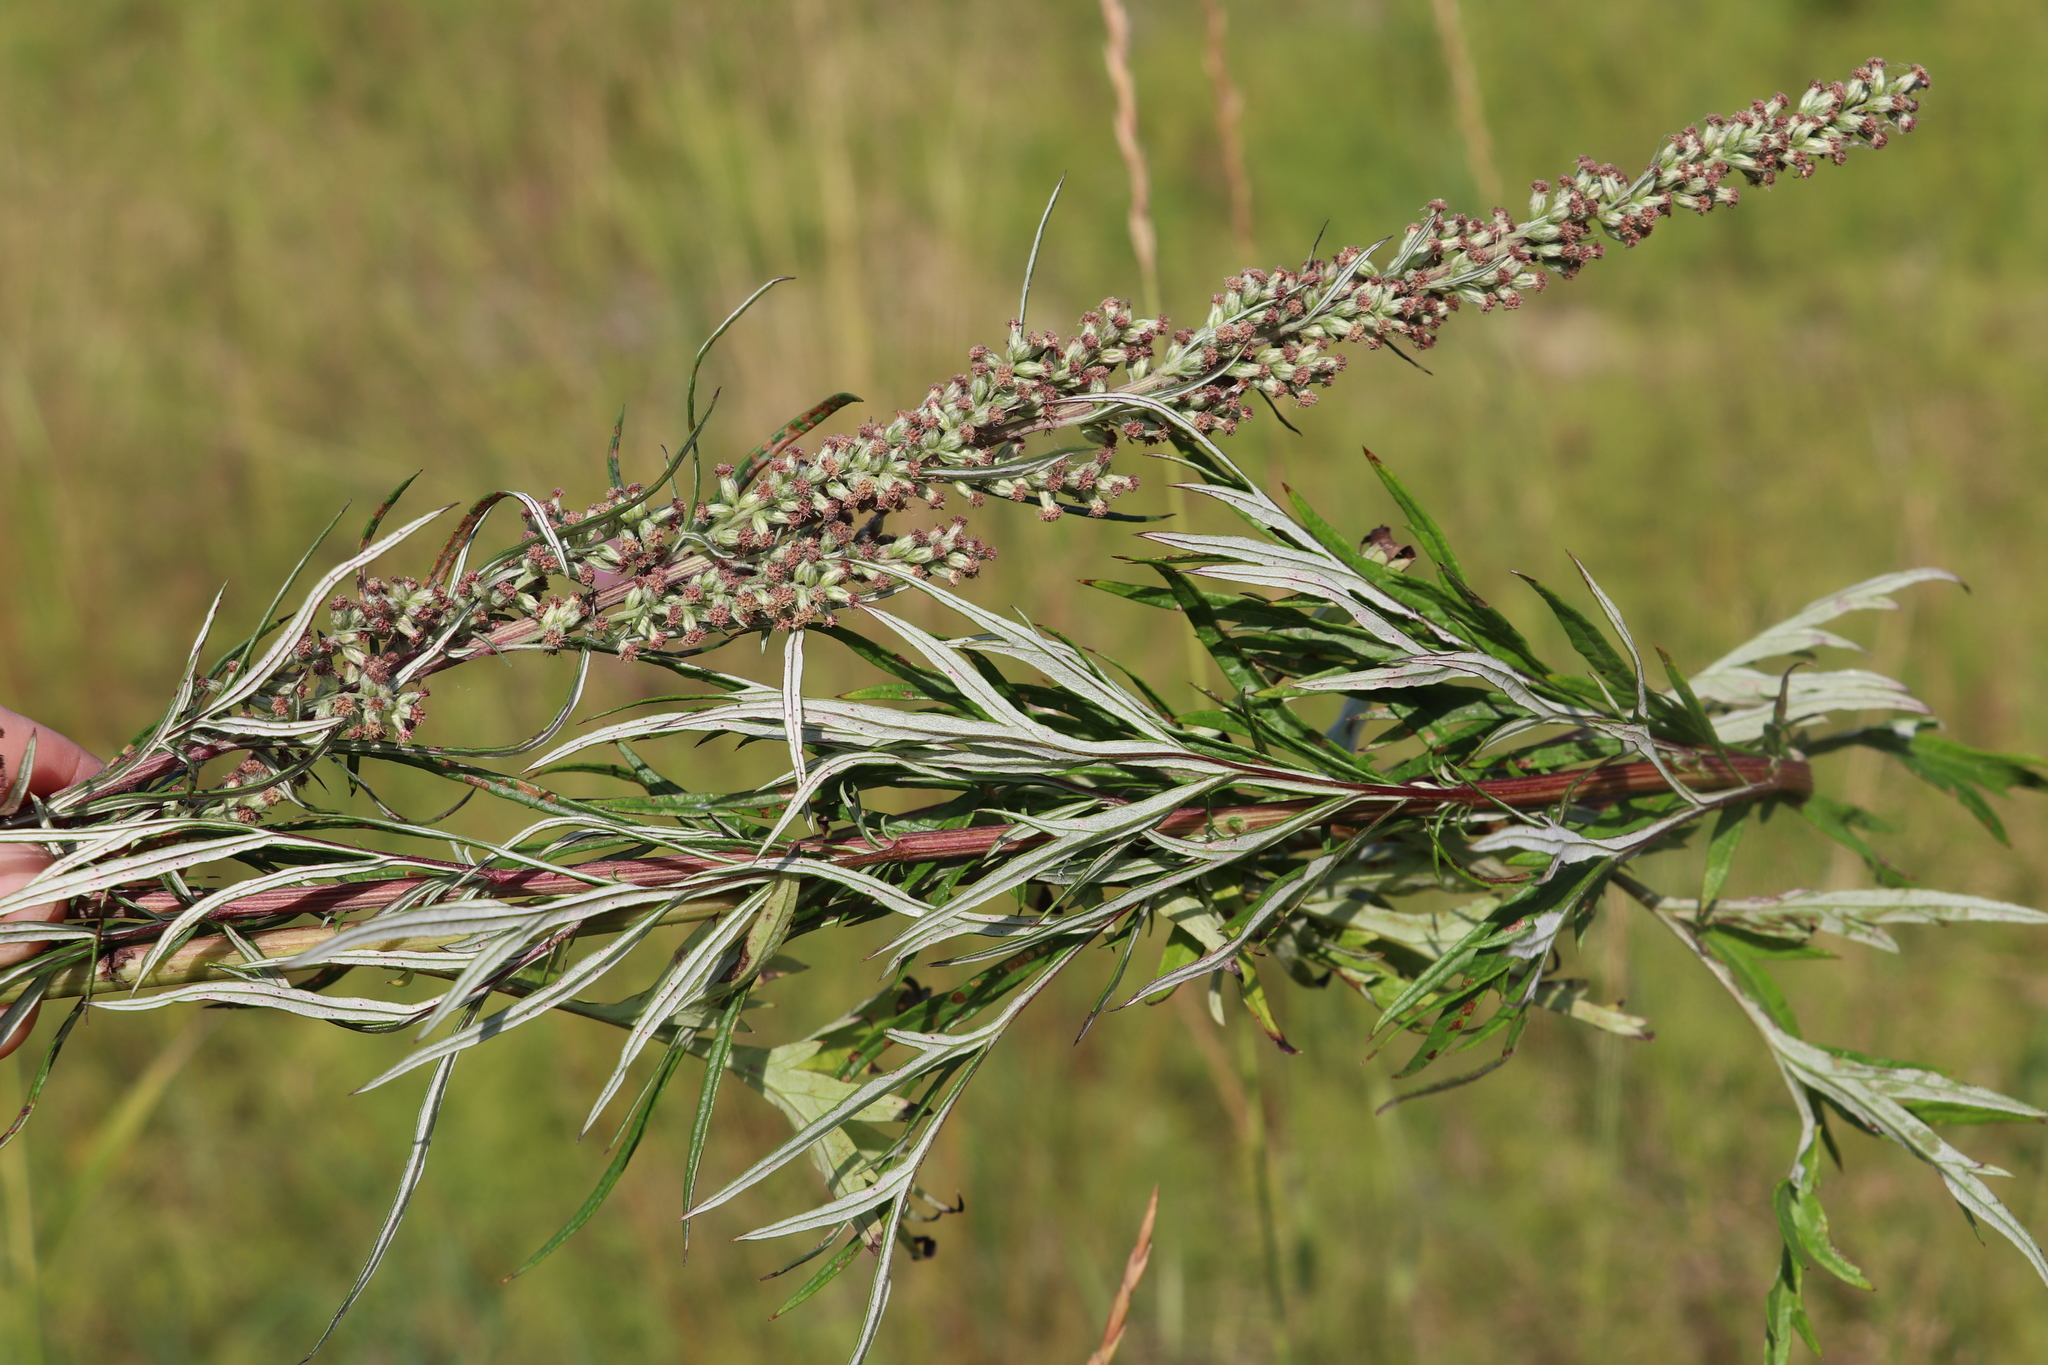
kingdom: Plantae
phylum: Tracheophyta
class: Magnoliopsida
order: Asterales
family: Asteraceae
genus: Artemisia
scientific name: Artemisia vulgaris
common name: Mugwort
